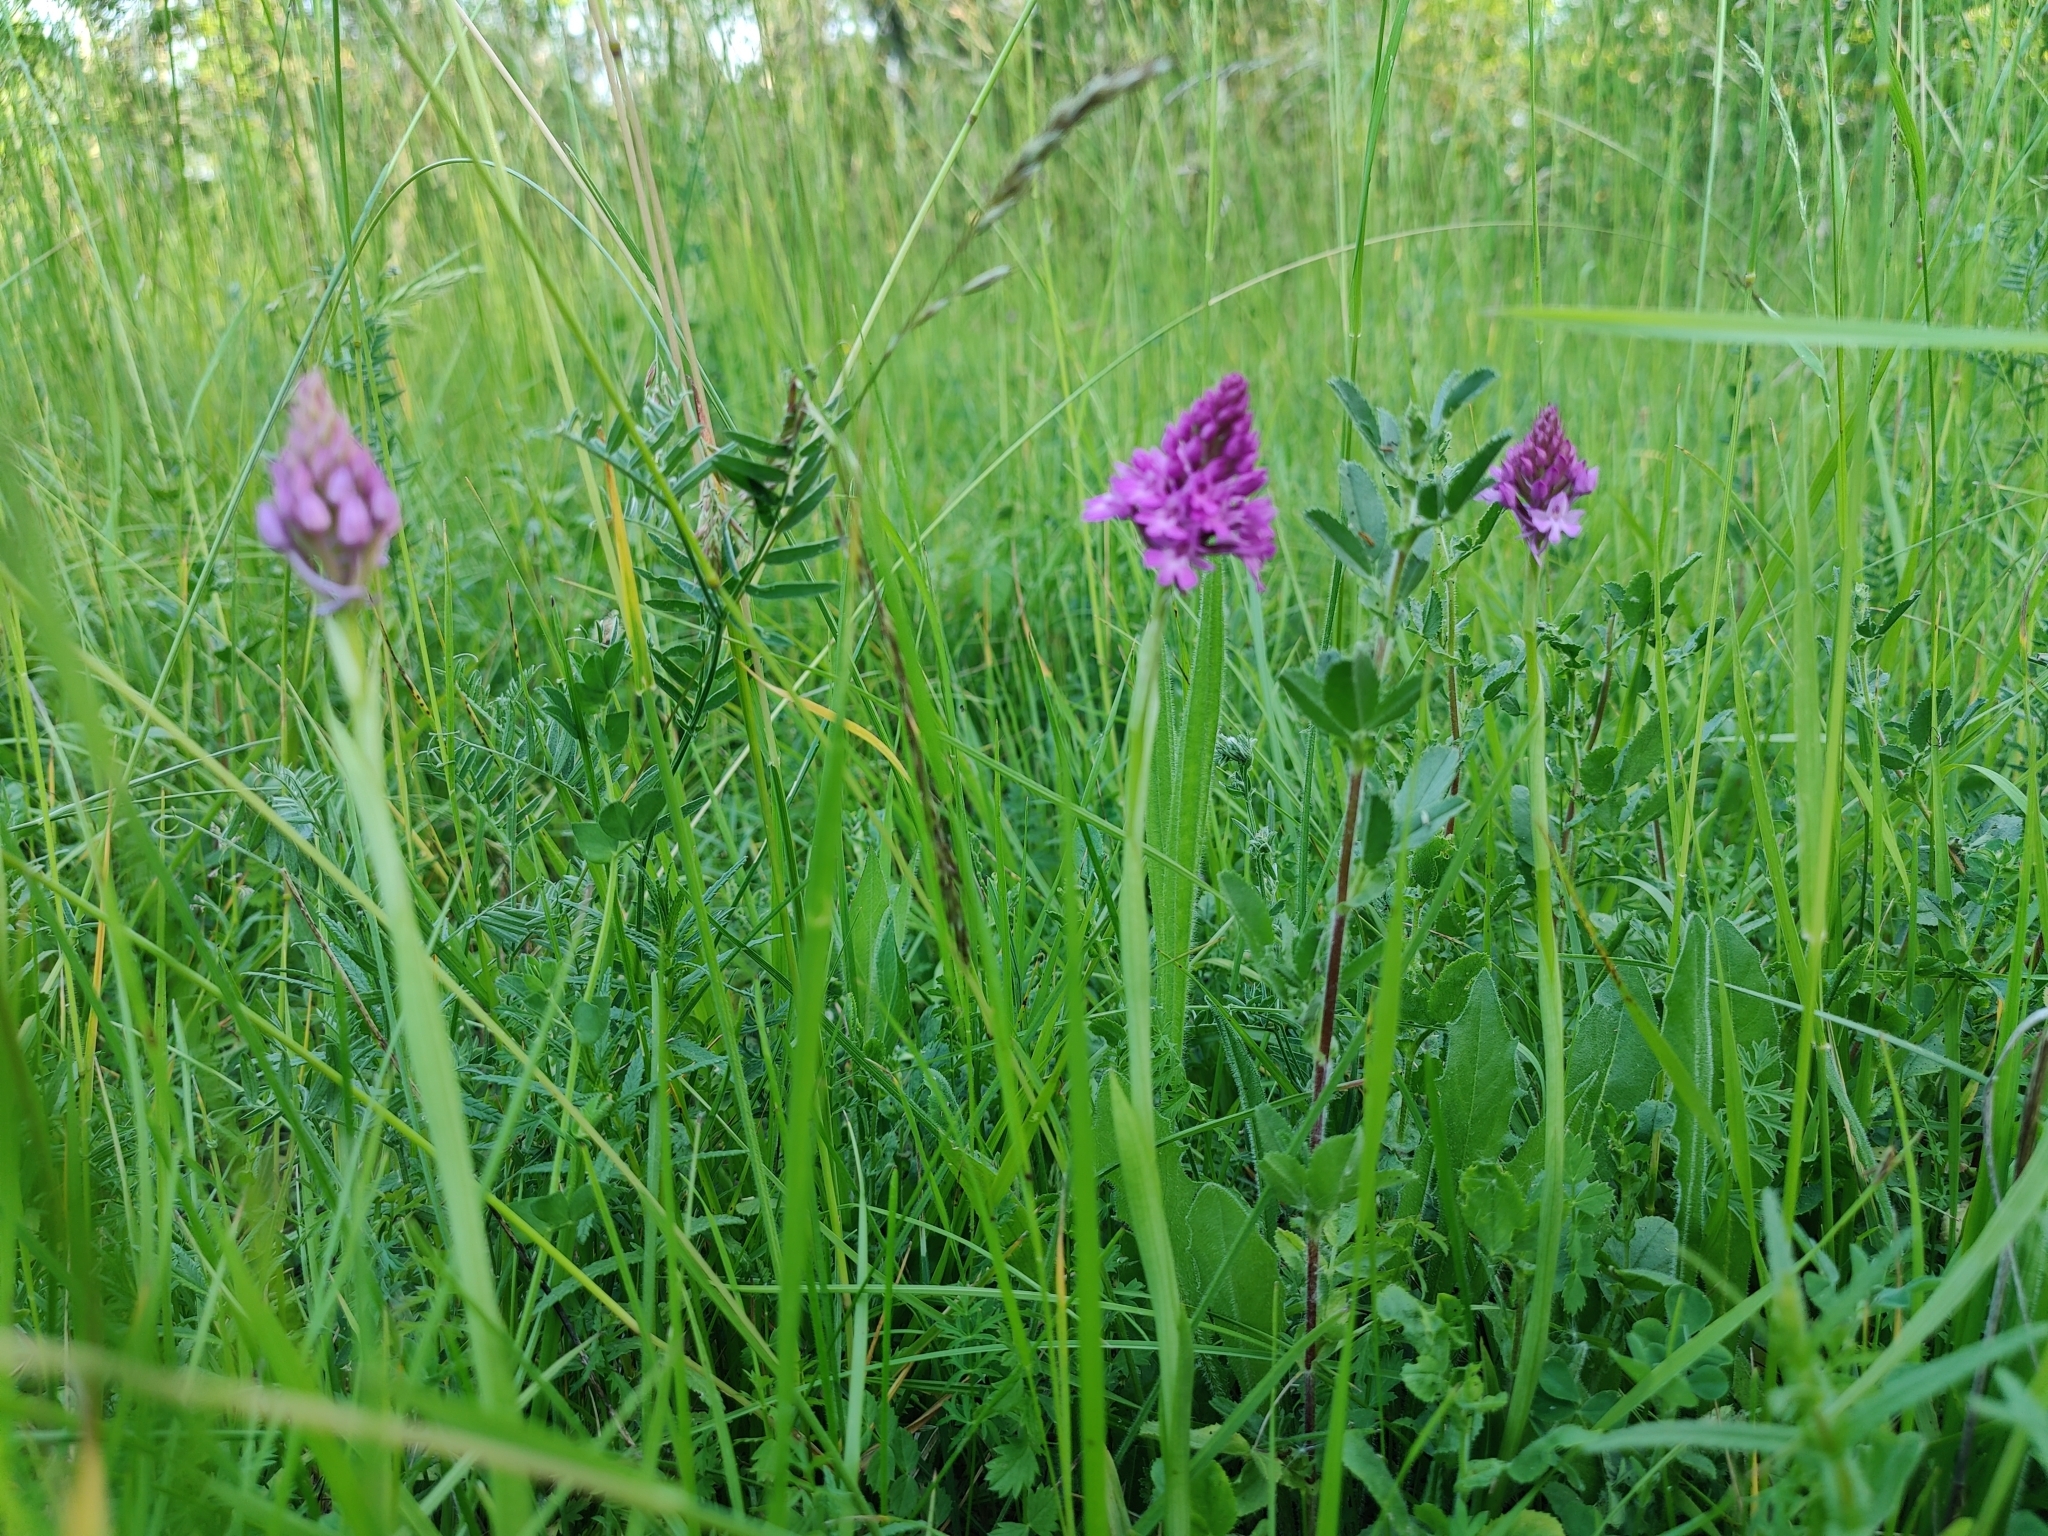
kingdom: Plantae
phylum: Tracheophyta
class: Liliopsida
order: Asparagales
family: Orchidaceae
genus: Anacamptis
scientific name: Anacamptis pyramidalis
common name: Pyramidal orchid
